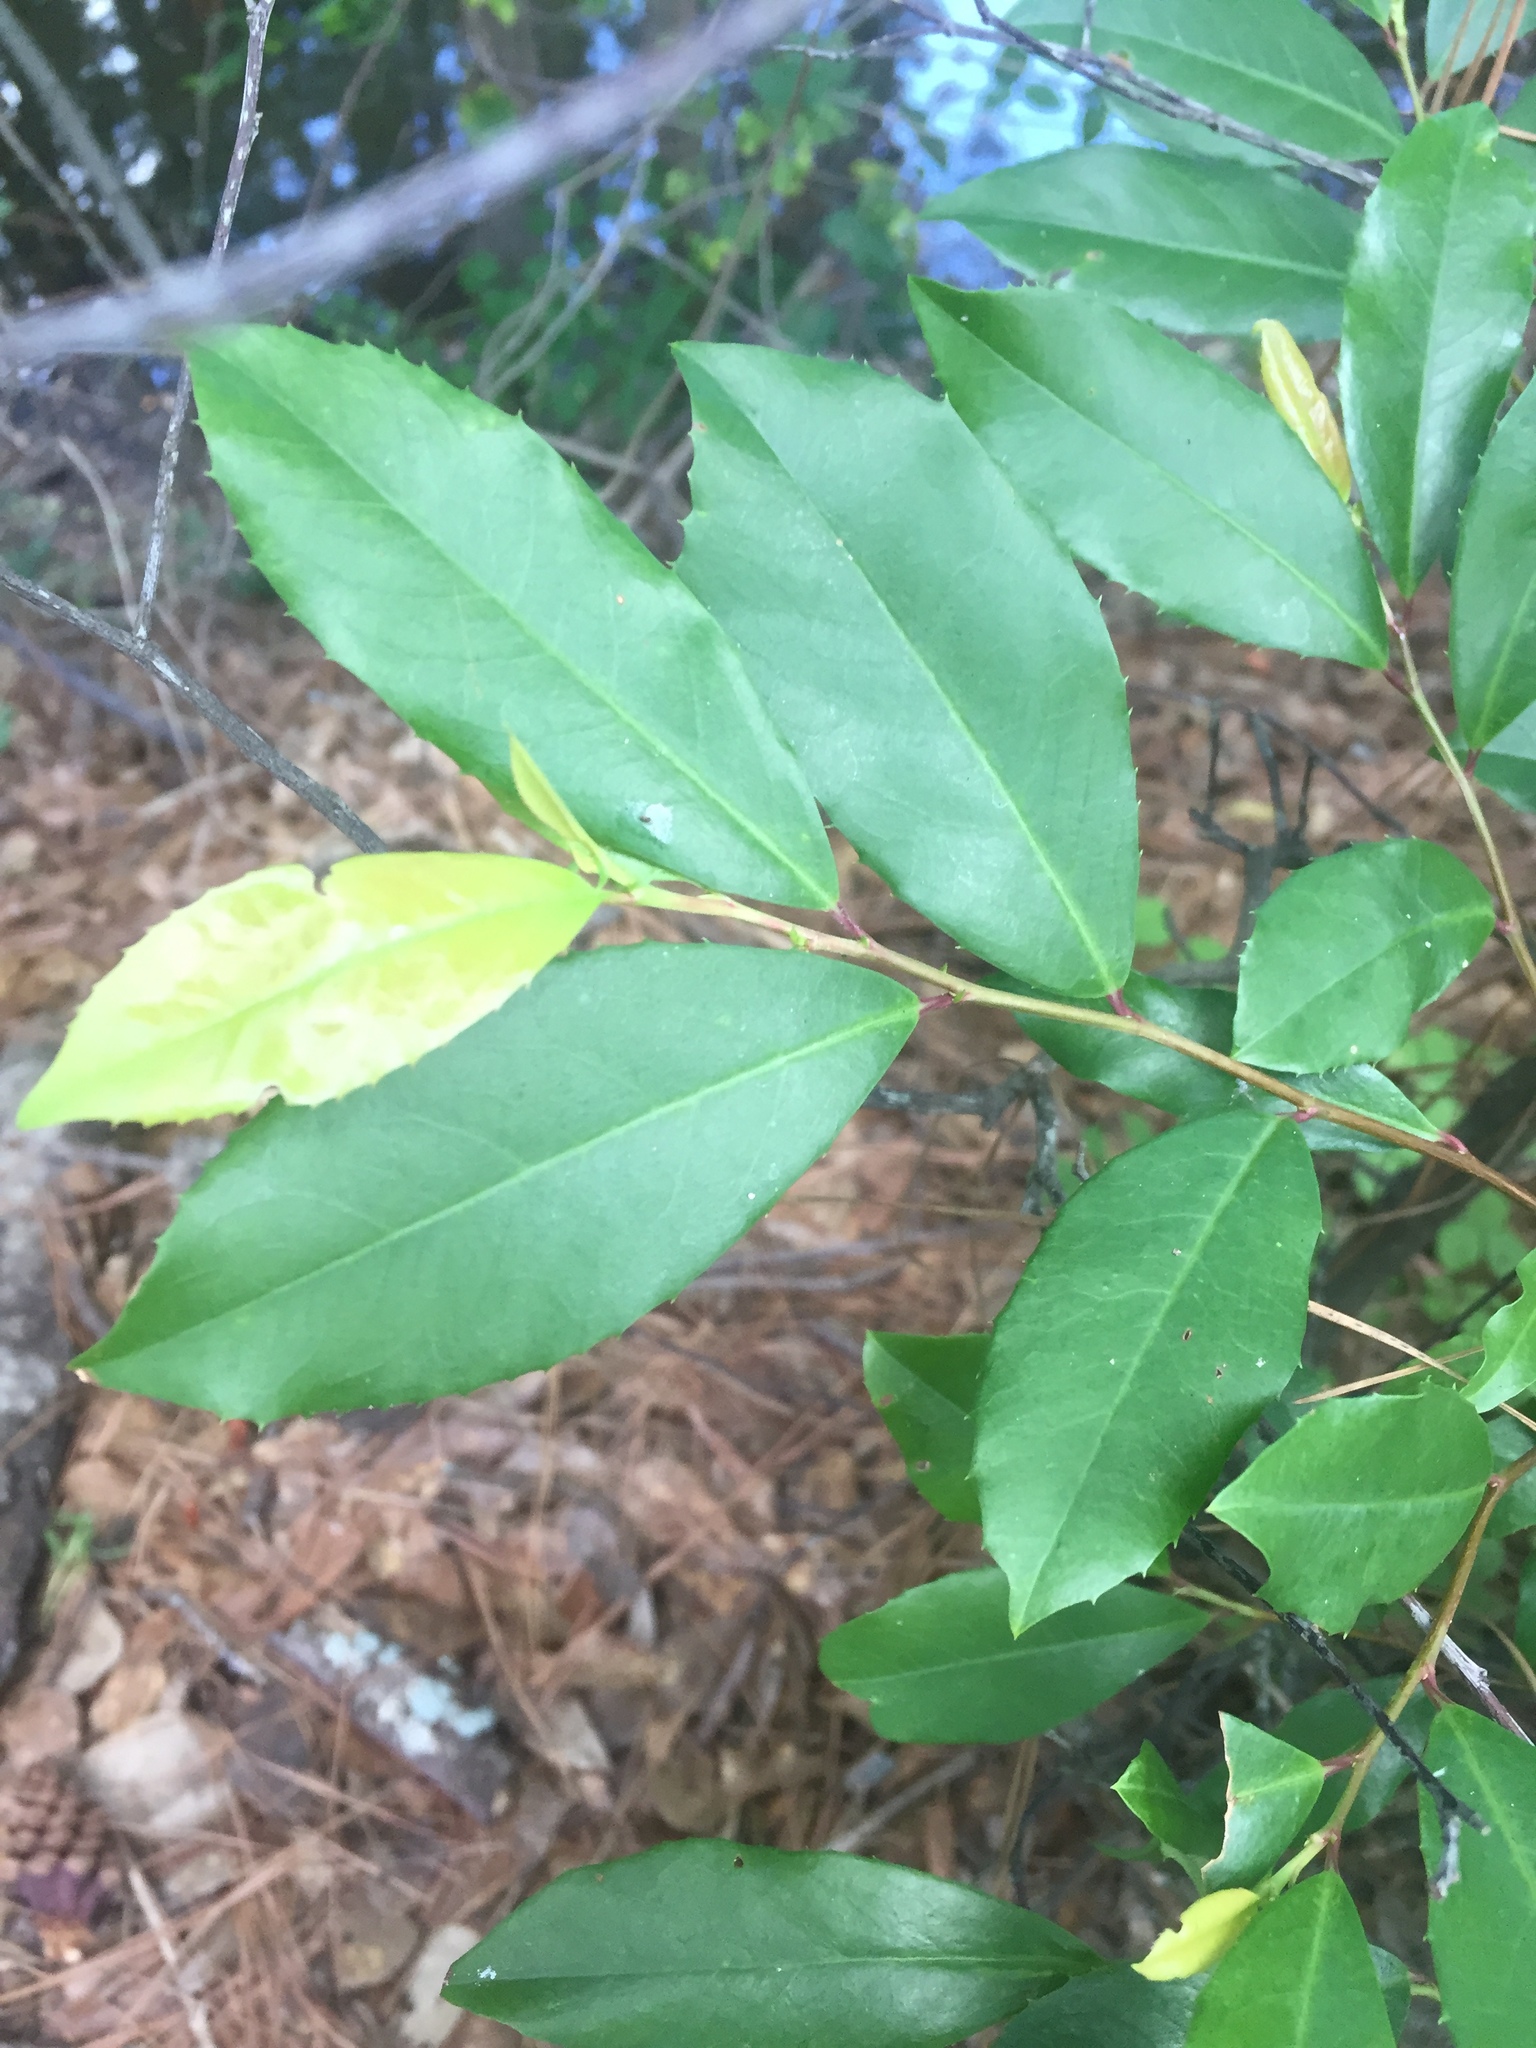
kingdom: Plantae
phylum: Tracheophyta
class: Magnoliopsida
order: Rosales
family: Rosaceae
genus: Prunus
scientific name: Prunus caroliniana
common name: Carolina laurel cherry
